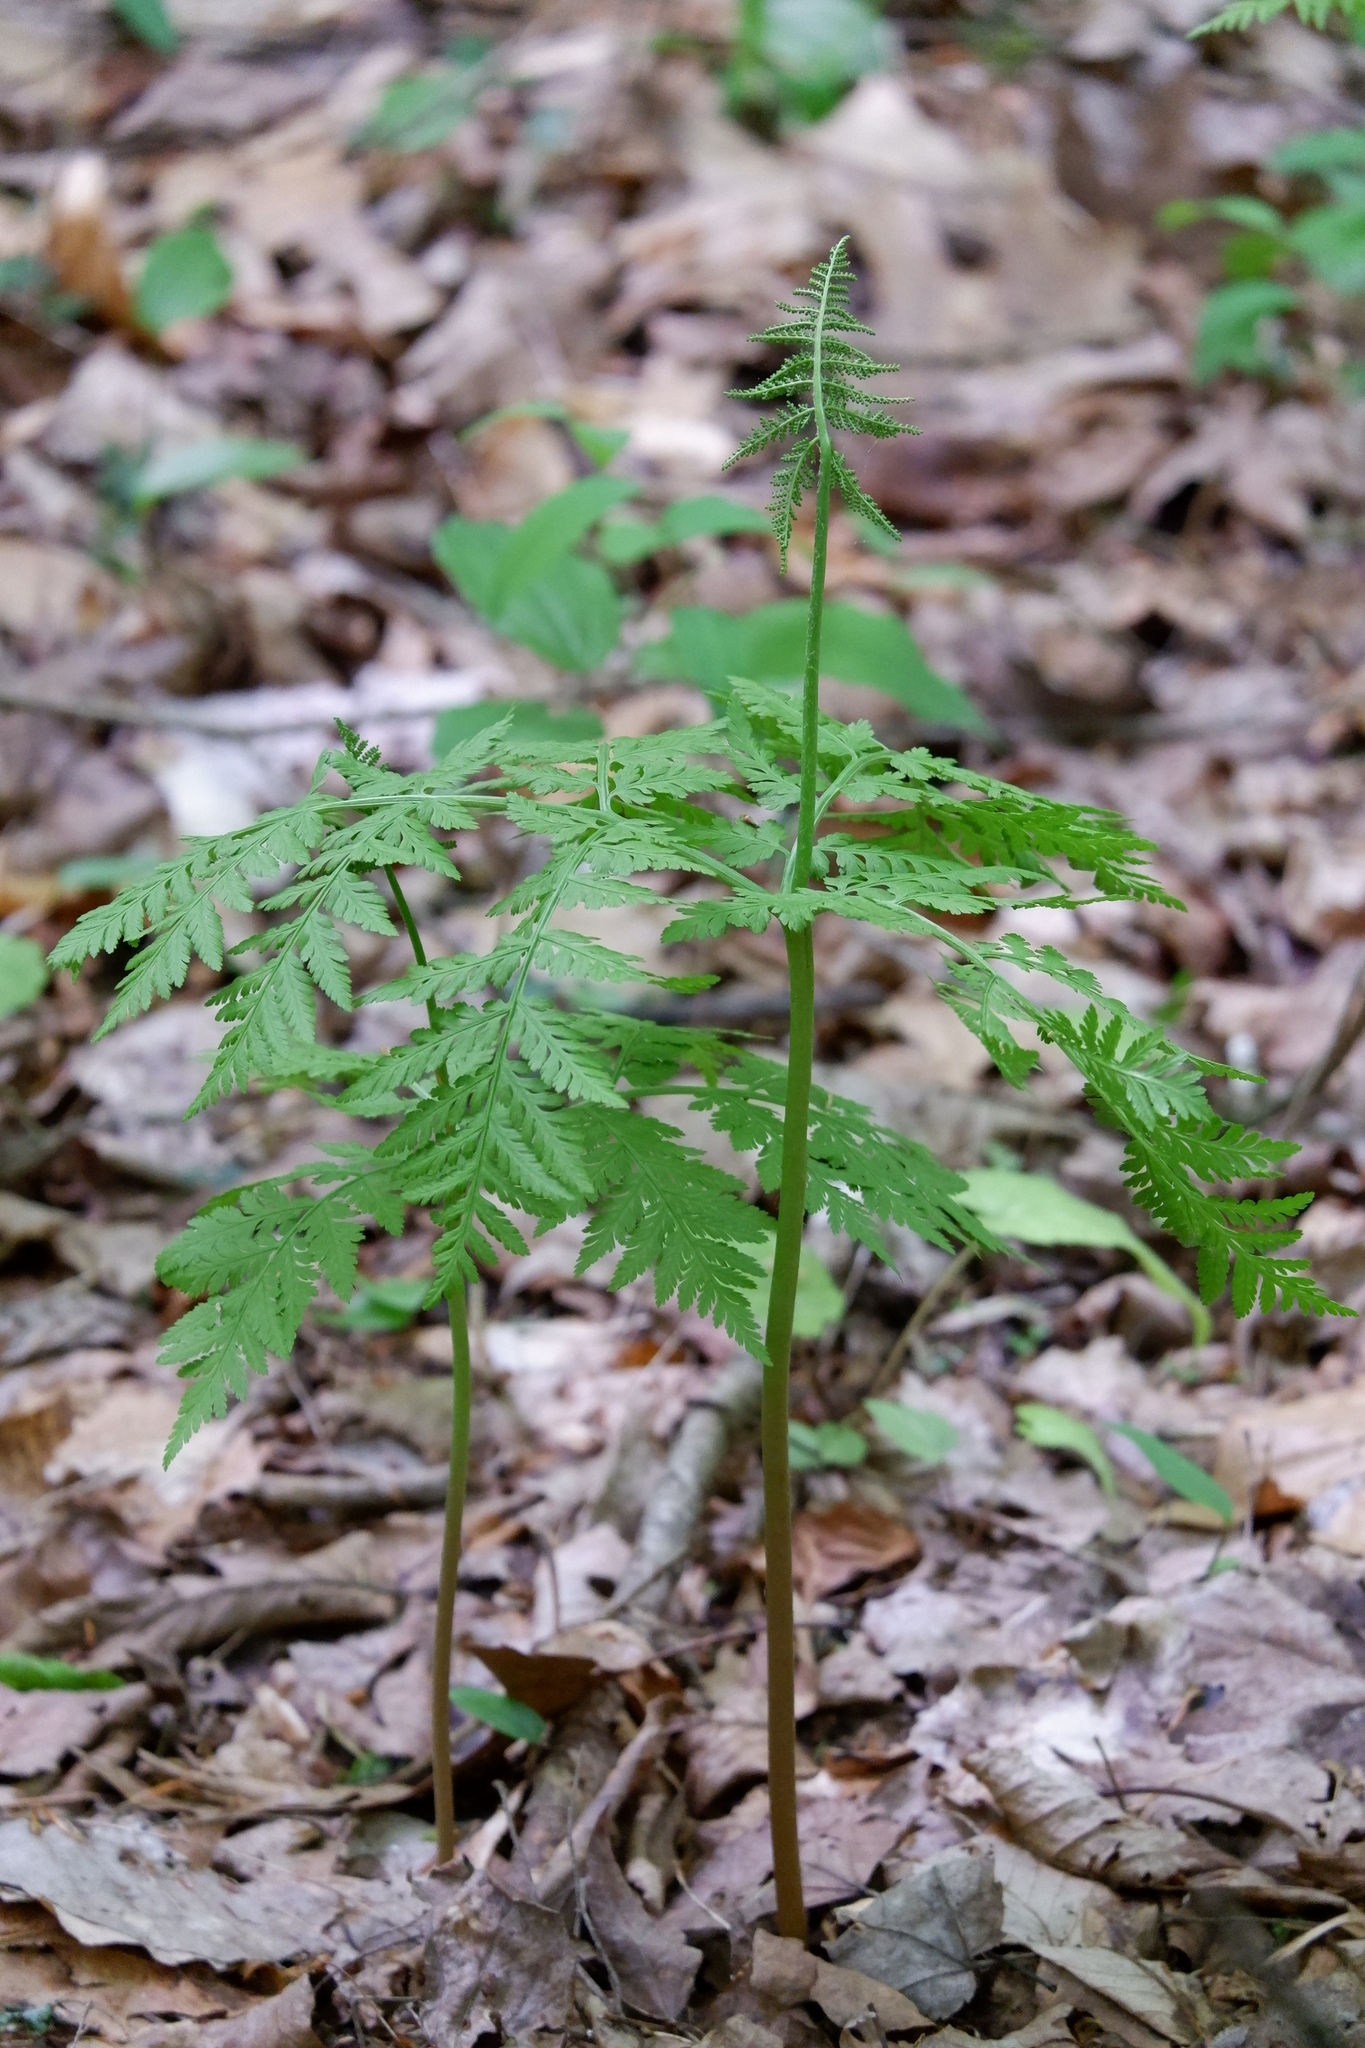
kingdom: Plantae
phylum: Tracheophyta
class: Polypodiopsida
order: Ophioglossales
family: Ophioglossaceae
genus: Botrypus
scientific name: Botrypus virginianus
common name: Common grapefern
